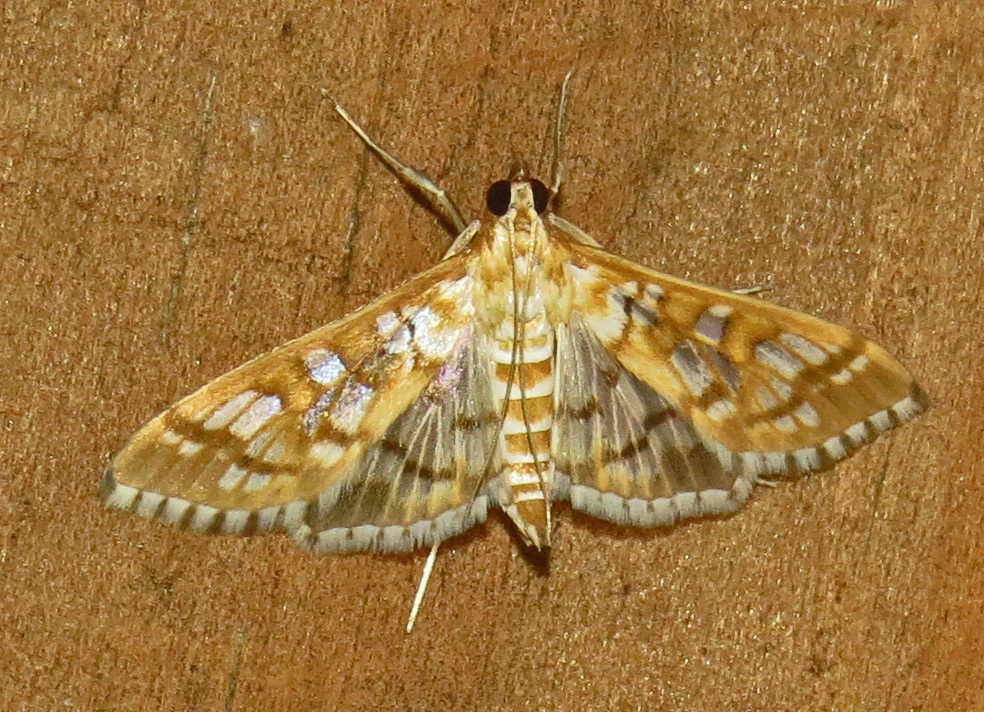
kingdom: Animalia
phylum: Arthropoda
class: Insecta
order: Lepidoptera
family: Crambidae
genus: Epipagis
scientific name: Epipagis fenestralis
